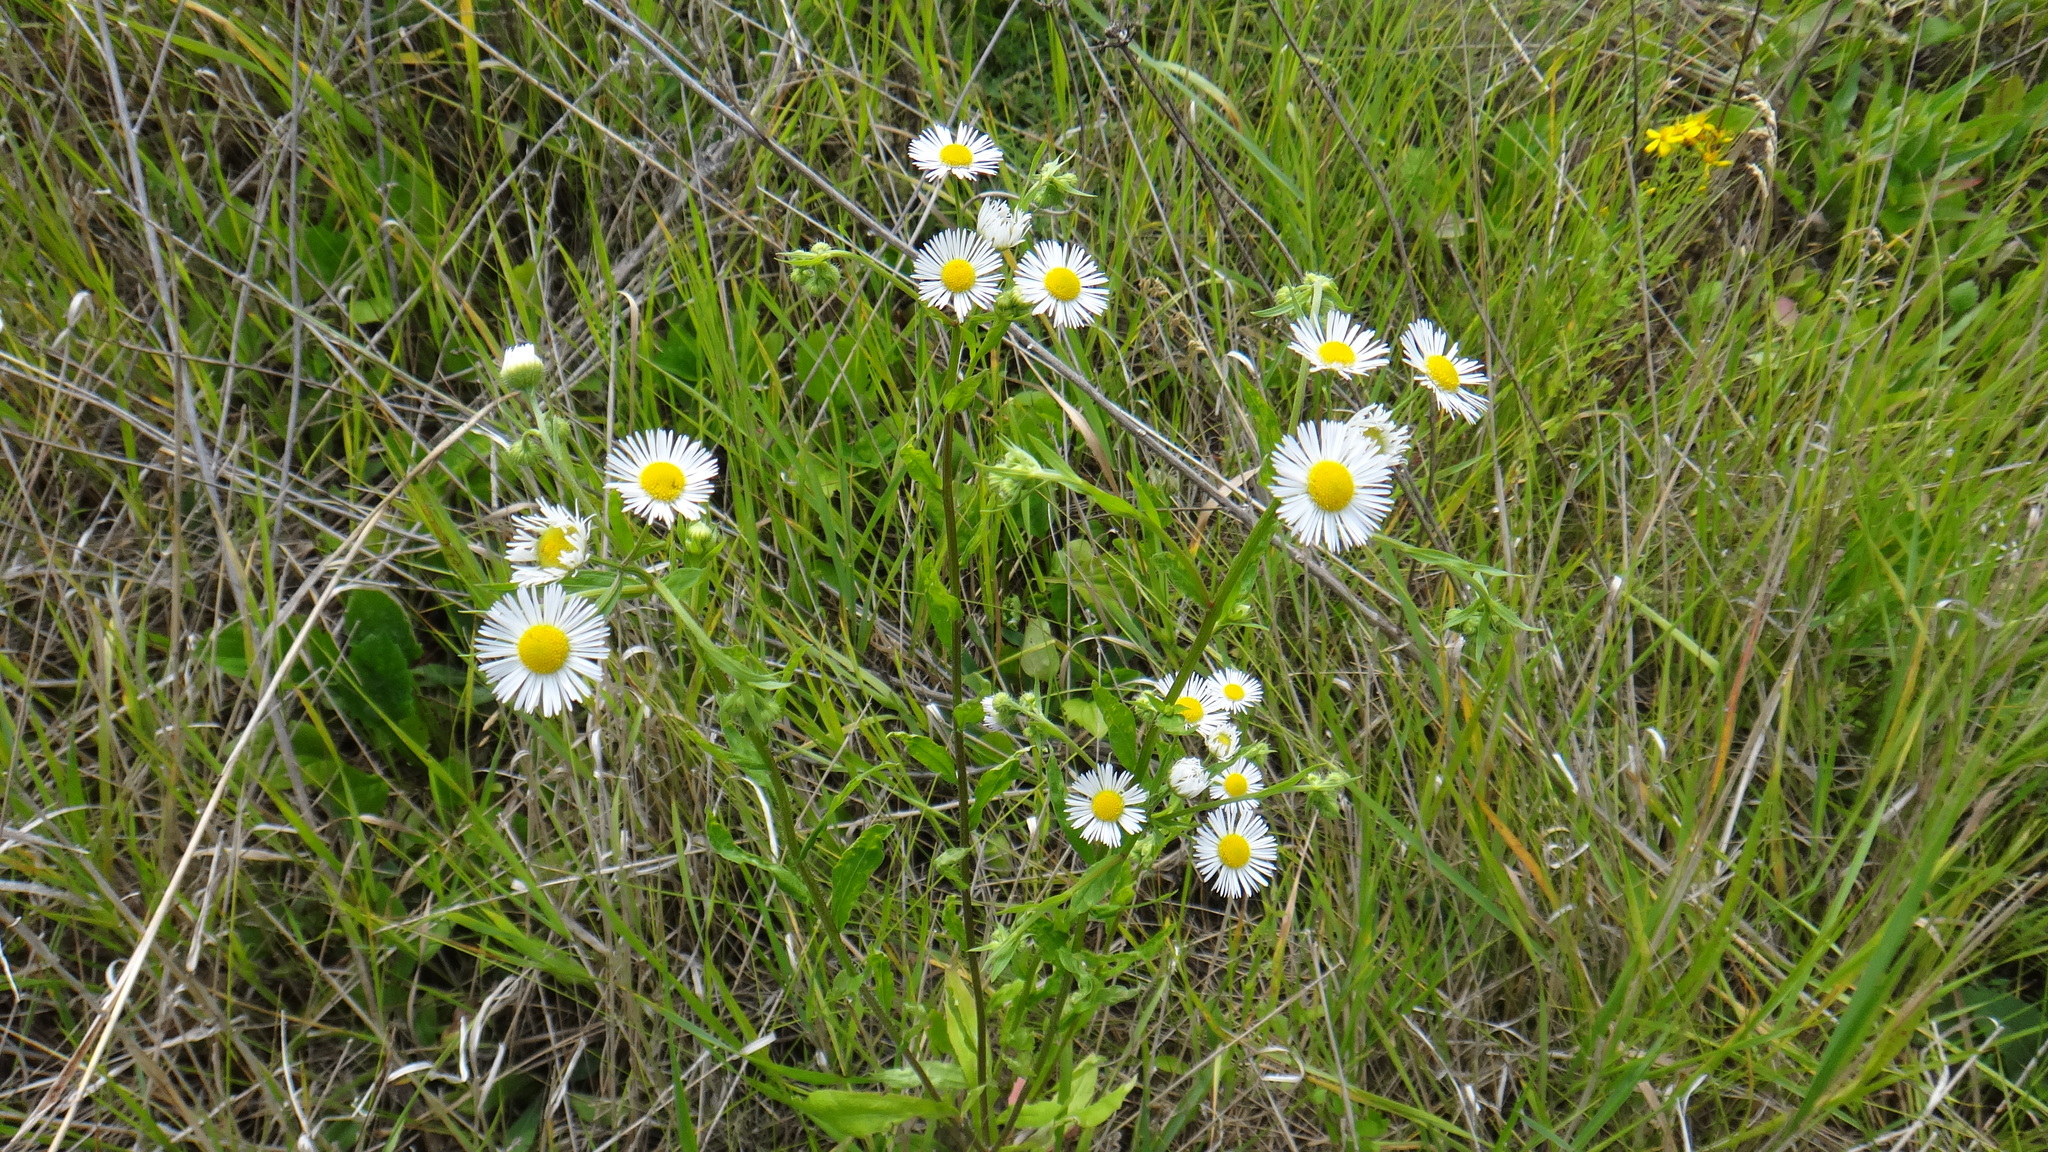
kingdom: Plantae
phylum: Tracheophyta
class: Magnoliopsida
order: Asterales
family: Asteraceae
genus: Erigeron
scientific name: Erigeron annuus
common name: Tall fleabane
